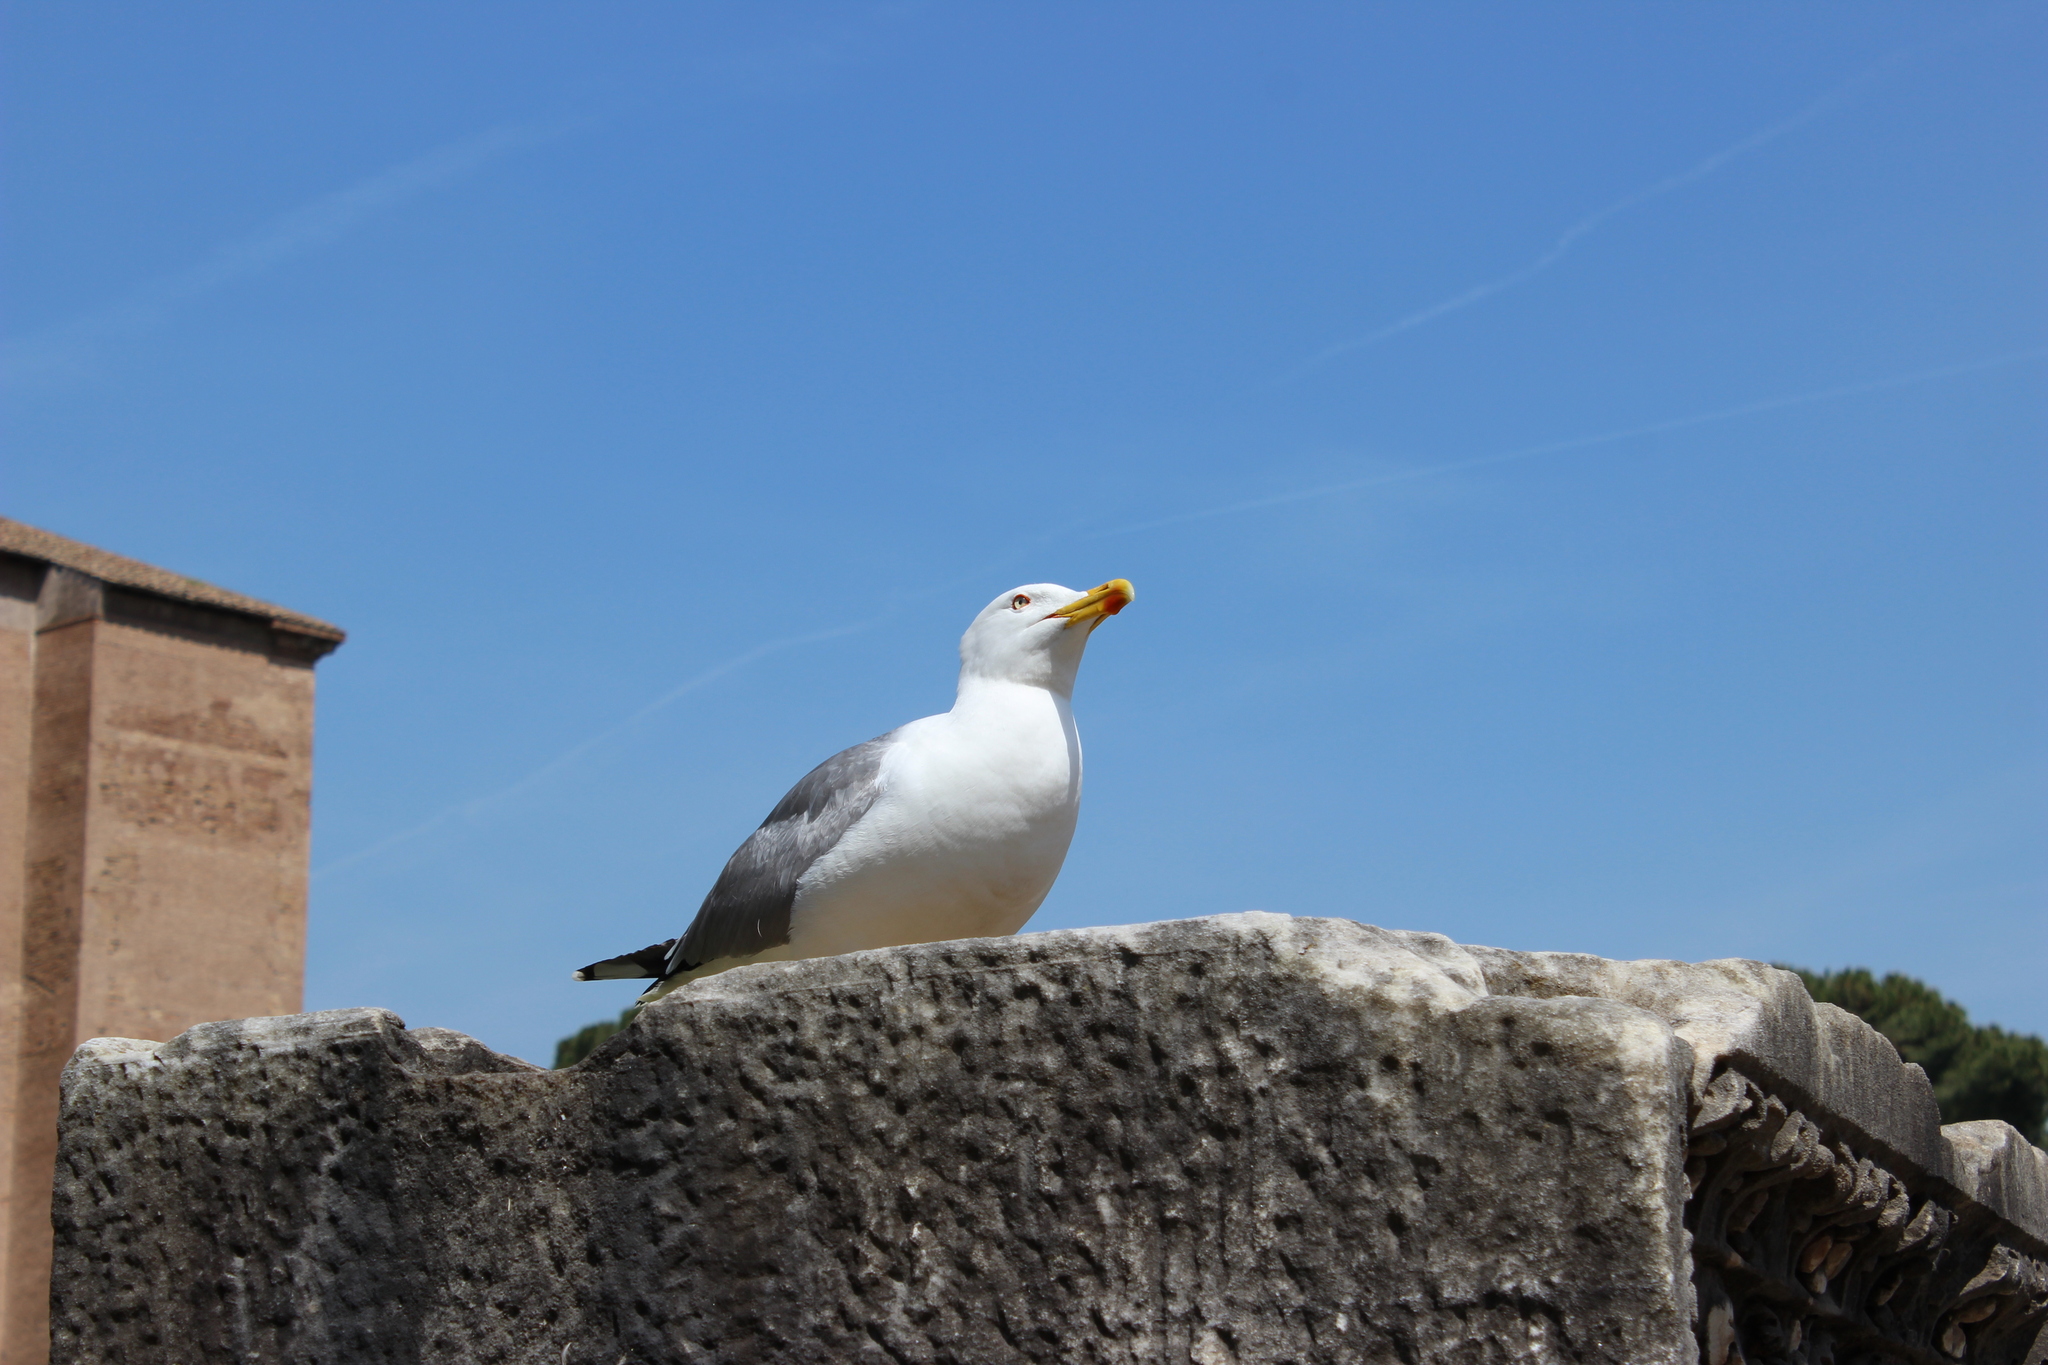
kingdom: Animalia
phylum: Chordata
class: Aves
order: Charadriiformes
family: Laridae
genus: Larus
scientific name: Larus michahellis
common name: Yellow-legged gull
